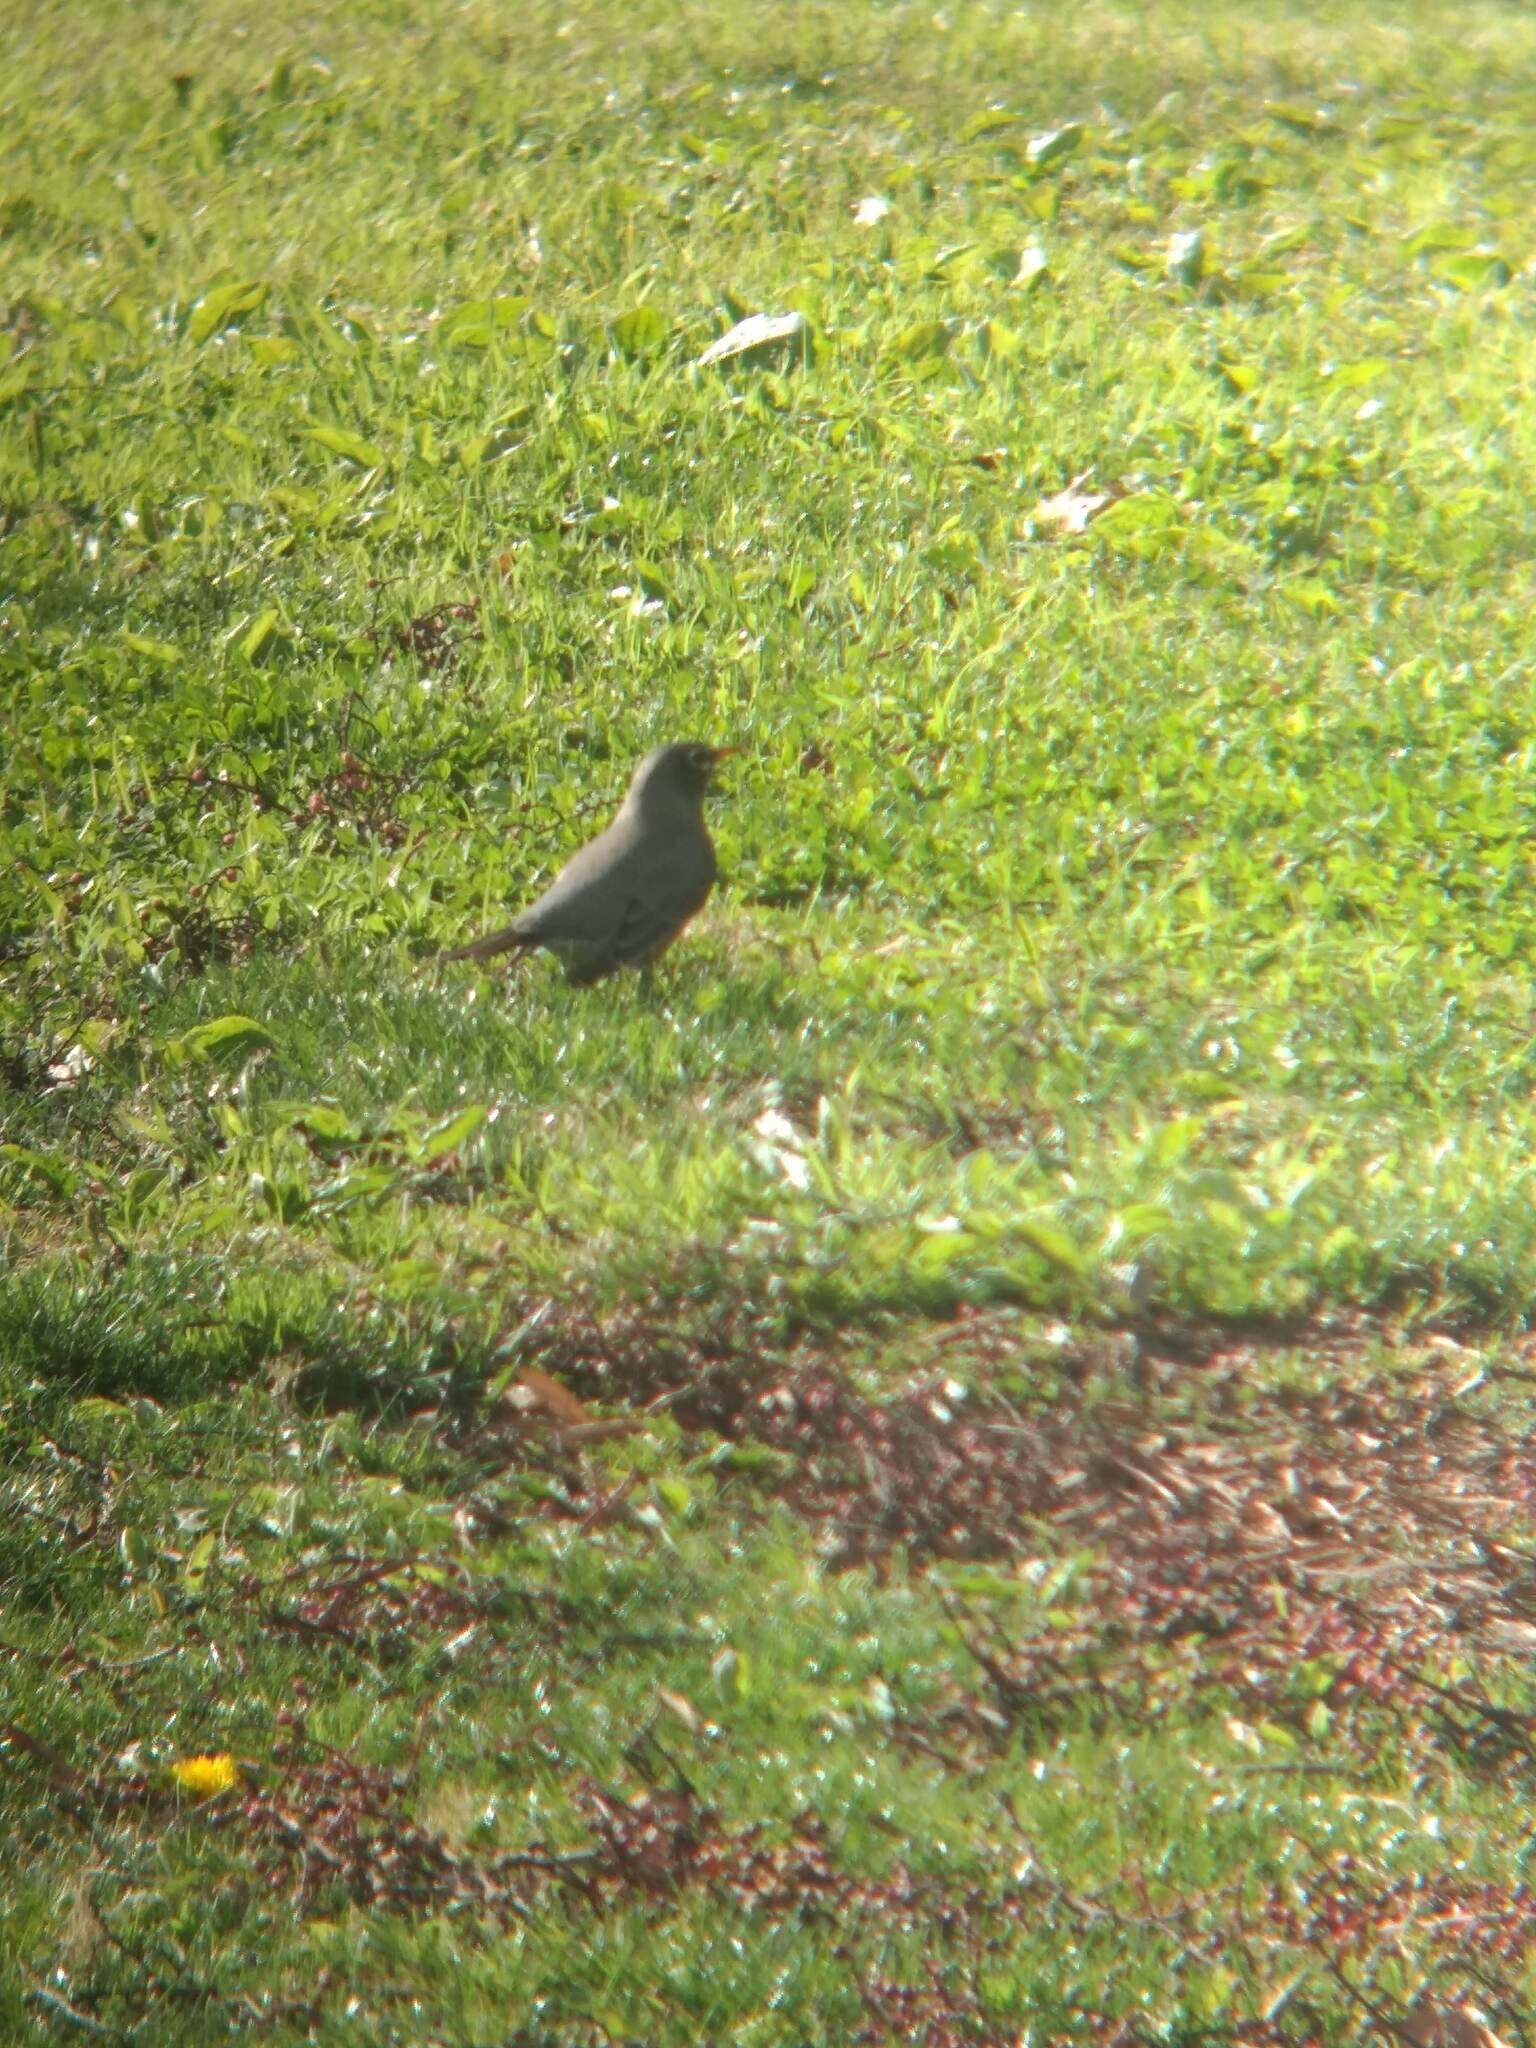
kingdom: Animalia
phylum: Chordata
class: Aves
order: Passeriformes
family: Turdidae
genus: Turdus
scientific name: Turdus migratorius
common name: American robin
